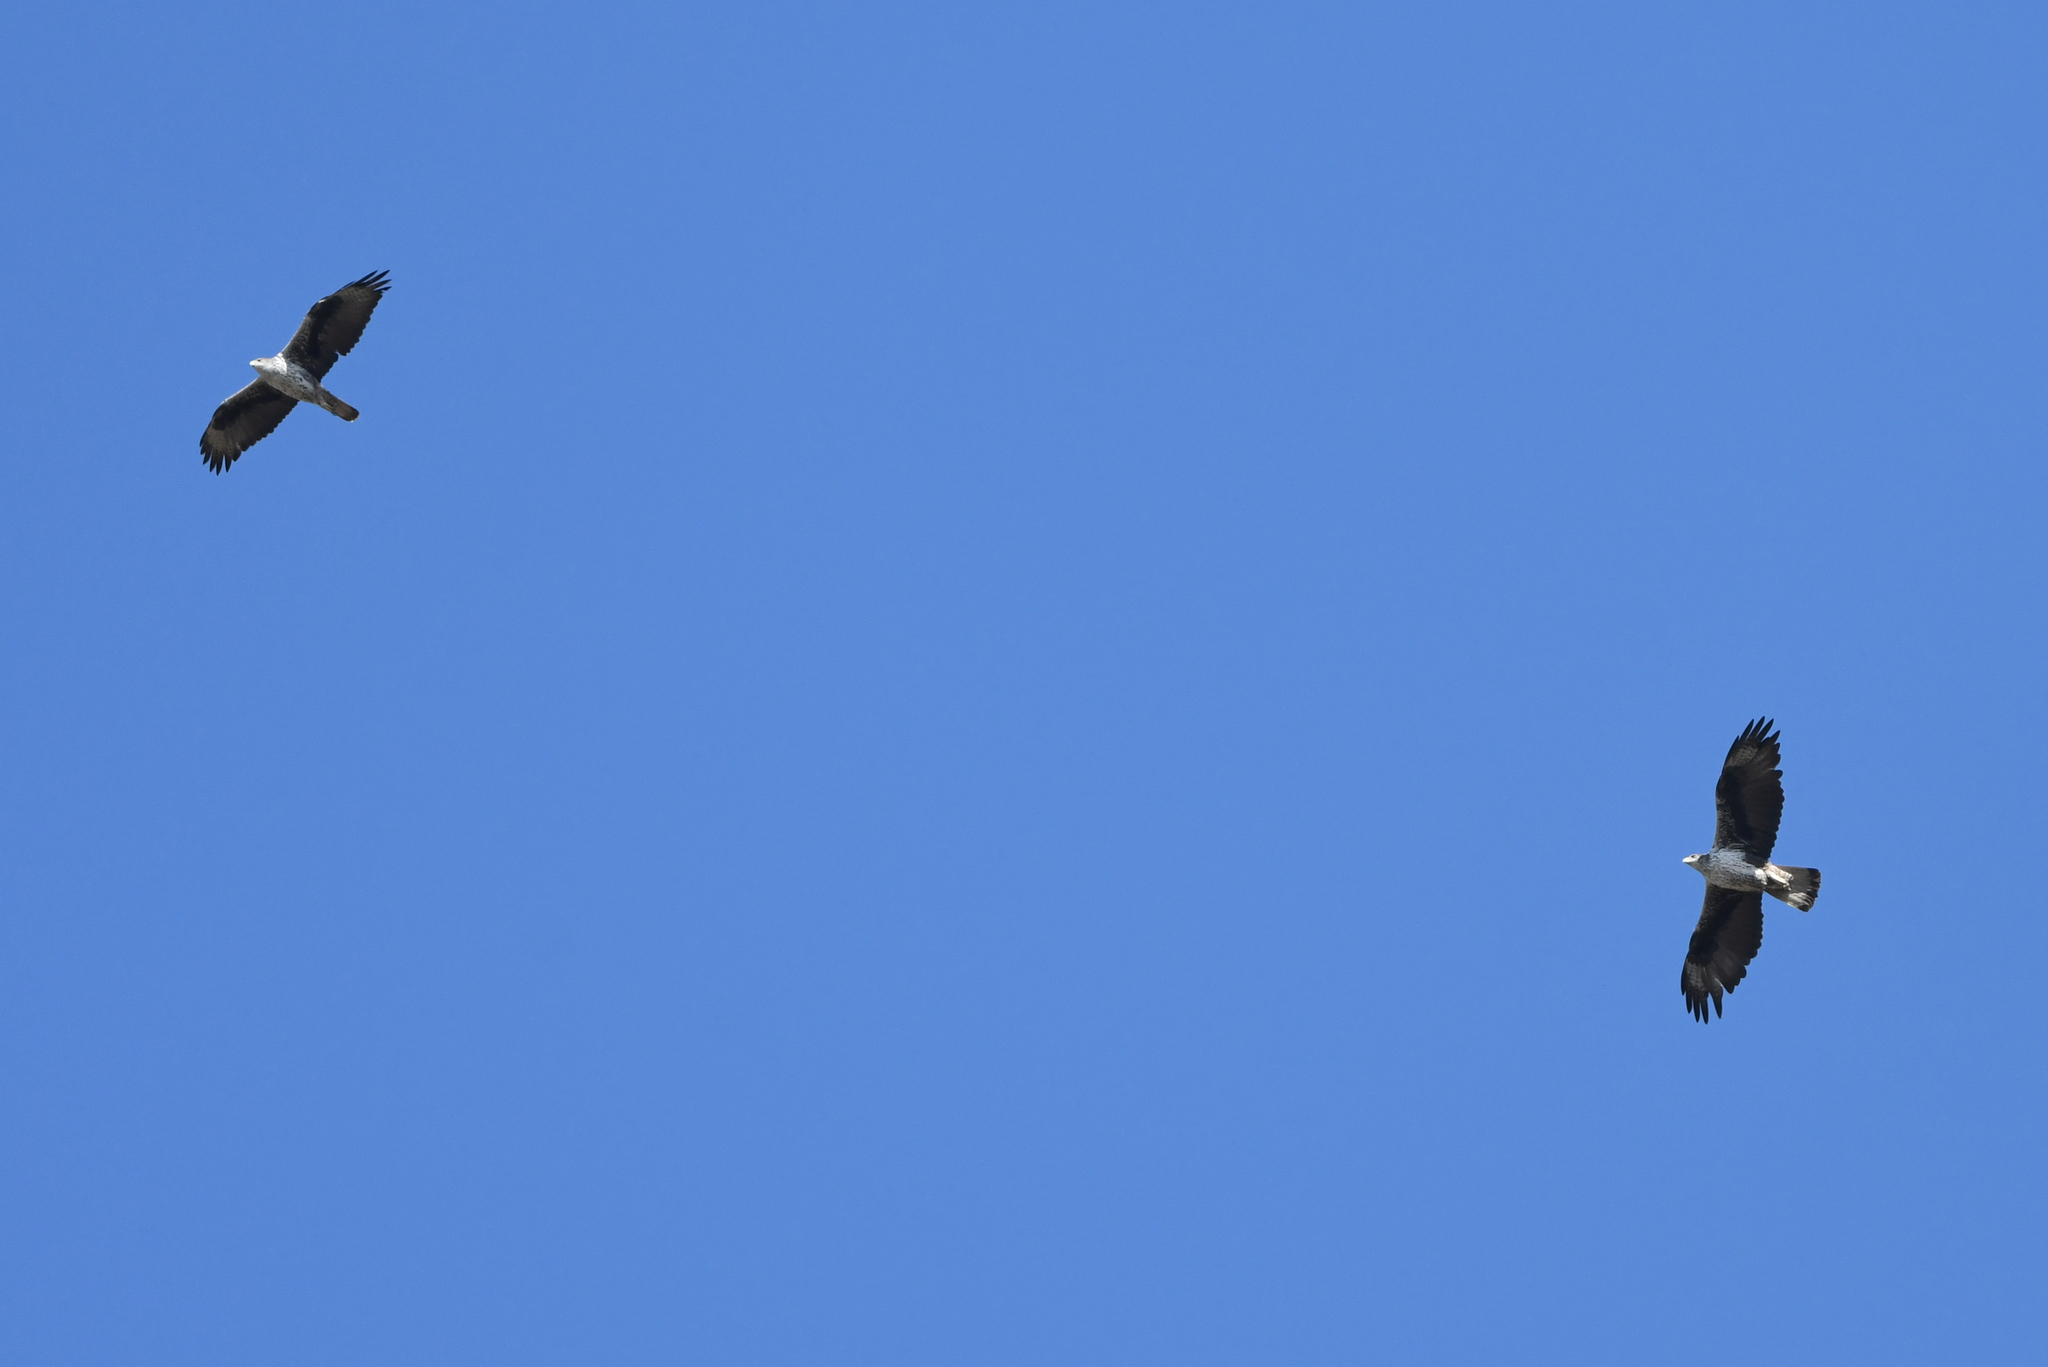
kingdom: Animalia
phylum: Chordata
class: Aves
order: Accipitriformes
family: Accipitridae
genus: Aquila
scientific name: Aquila fasciata
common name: Bonelli's eagle
